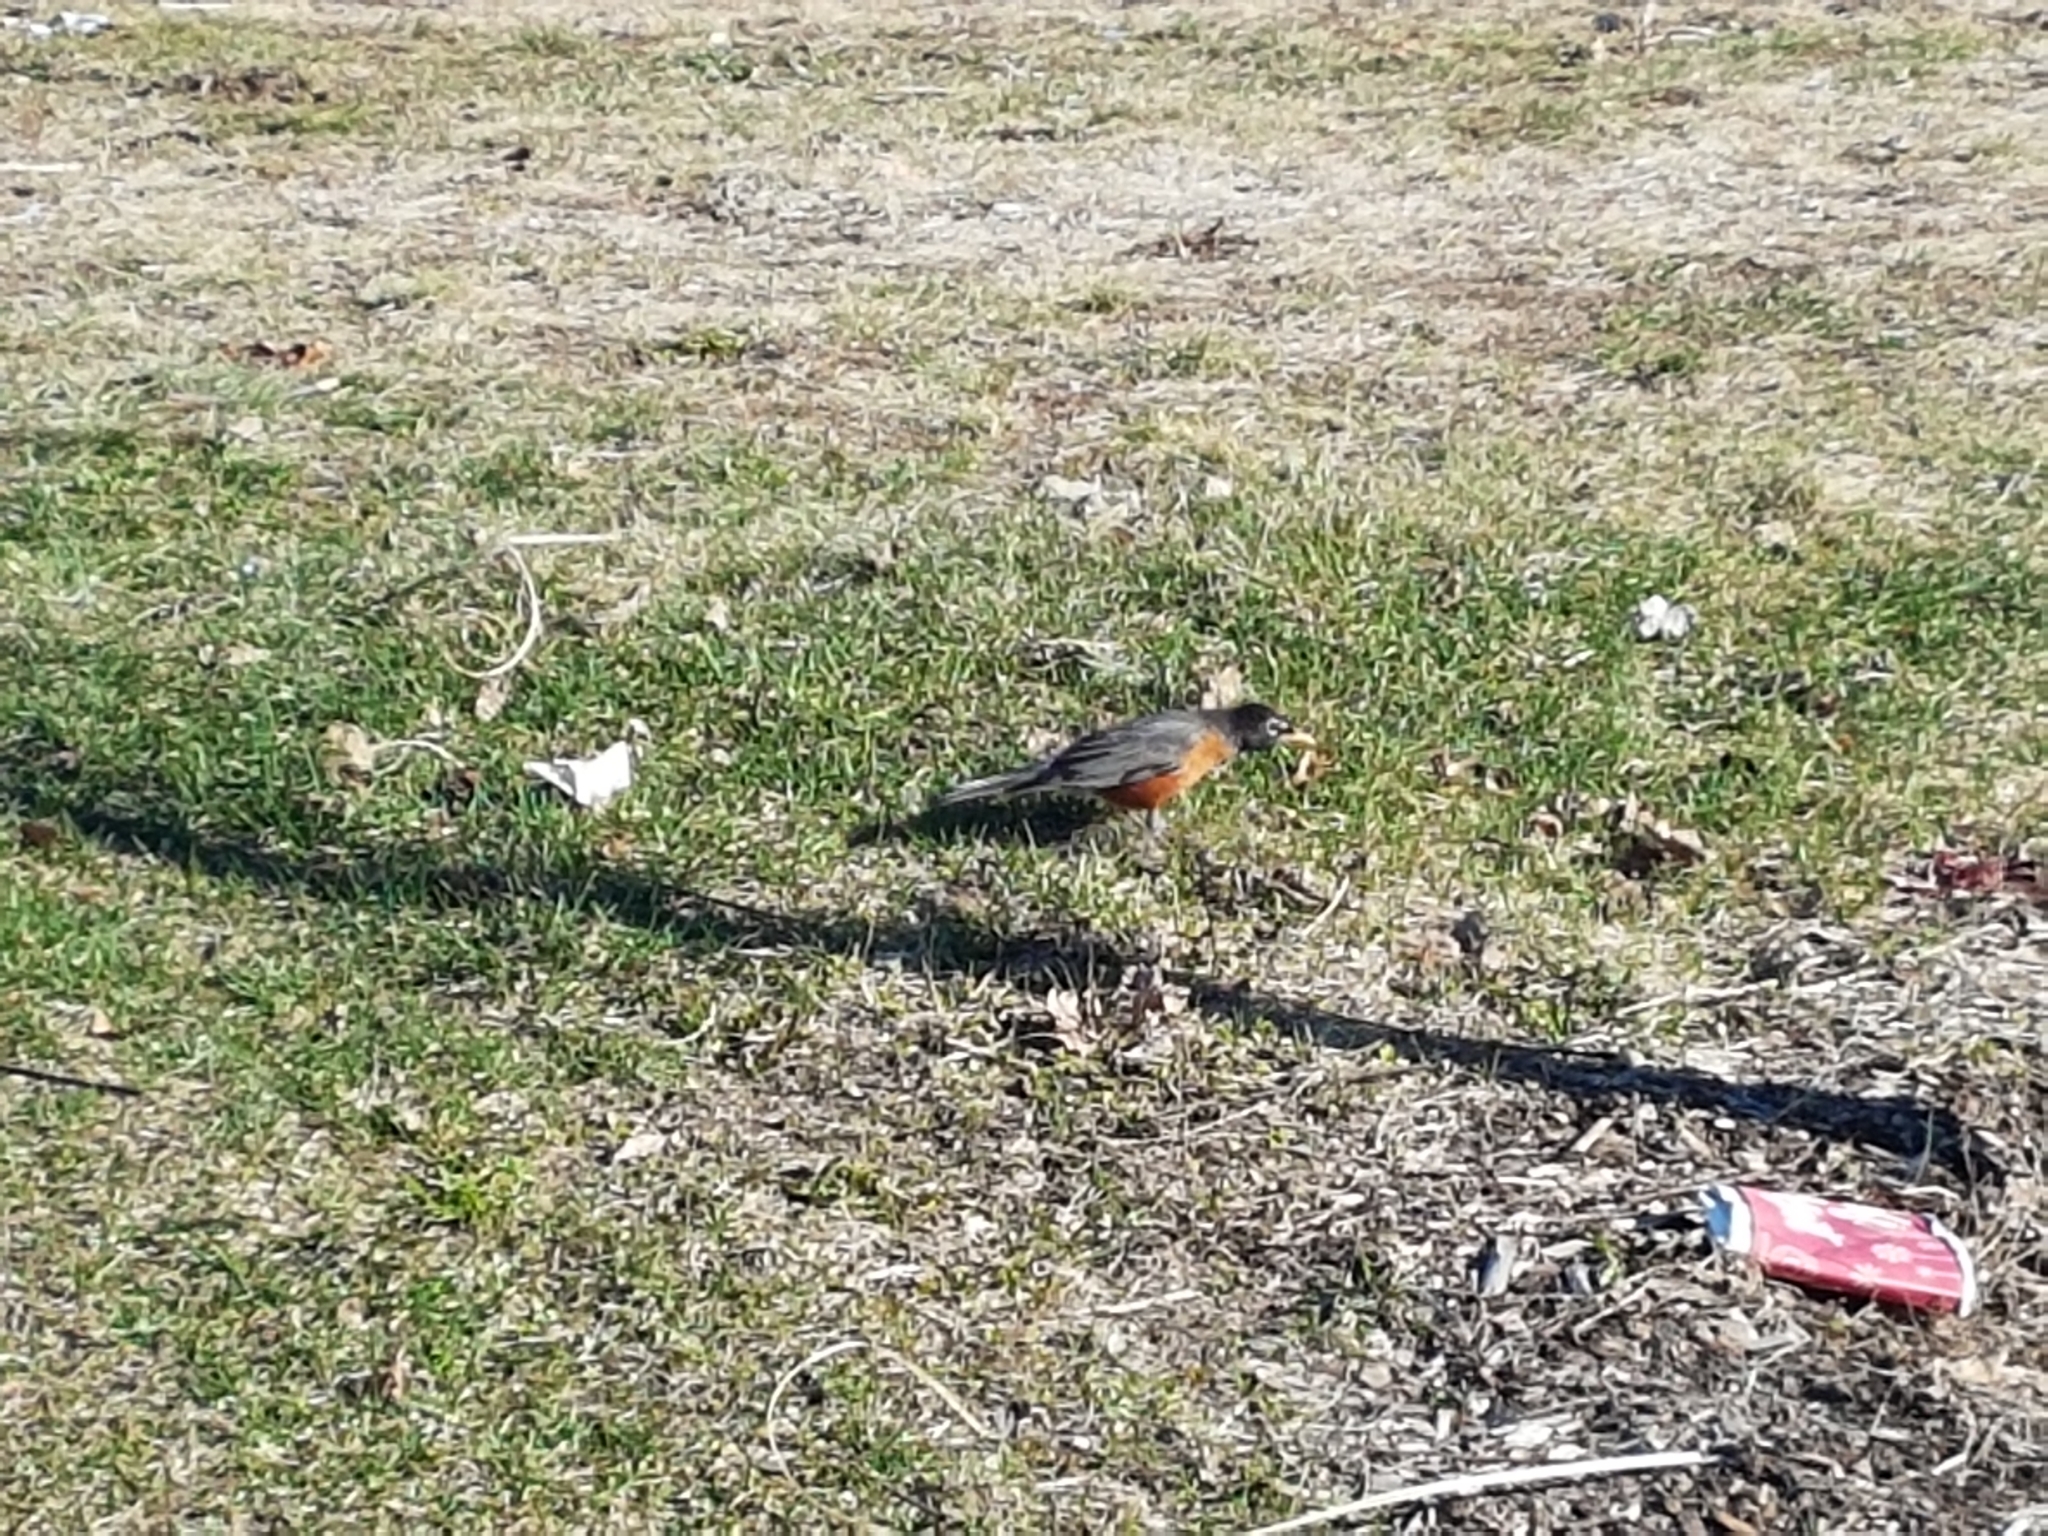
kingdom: Animalia
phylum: Chordata
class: Aves
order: Passeriformes
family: Turdidae
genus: Turdus
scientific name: Turdus migratorius
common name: American robin
